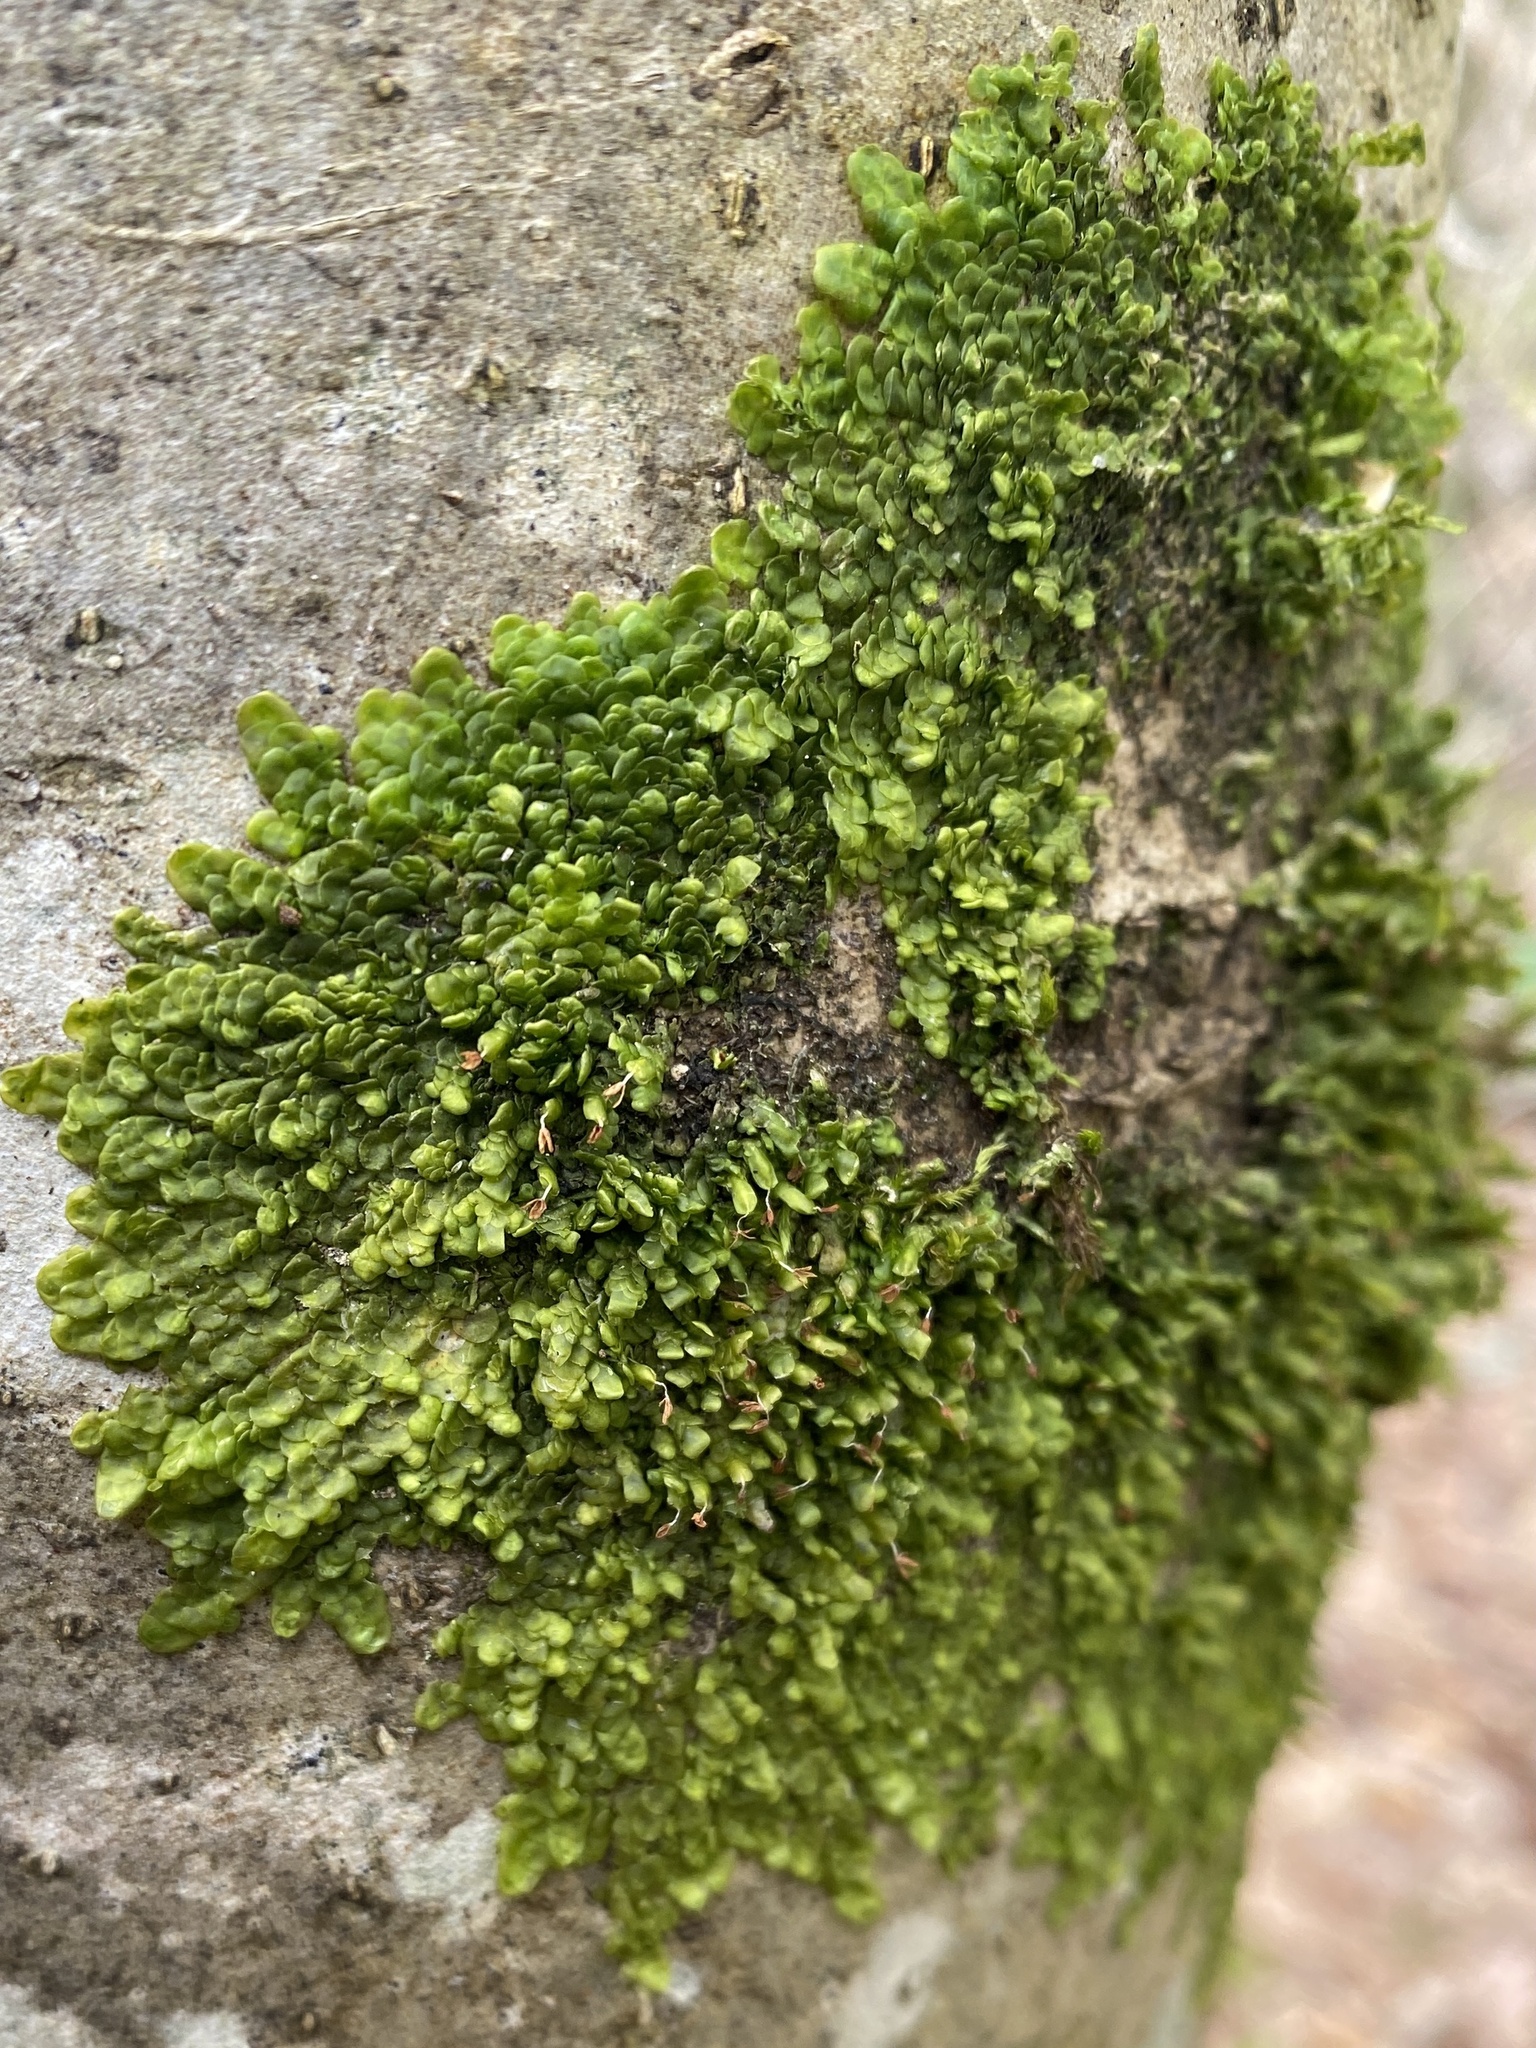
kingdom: Plantae
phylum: Marchantiophyta
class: Jungermanniopsida
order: Porellales
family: Radulaceae
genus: Radula
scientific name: Radula complanata
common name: Flat-leaved scalewort
